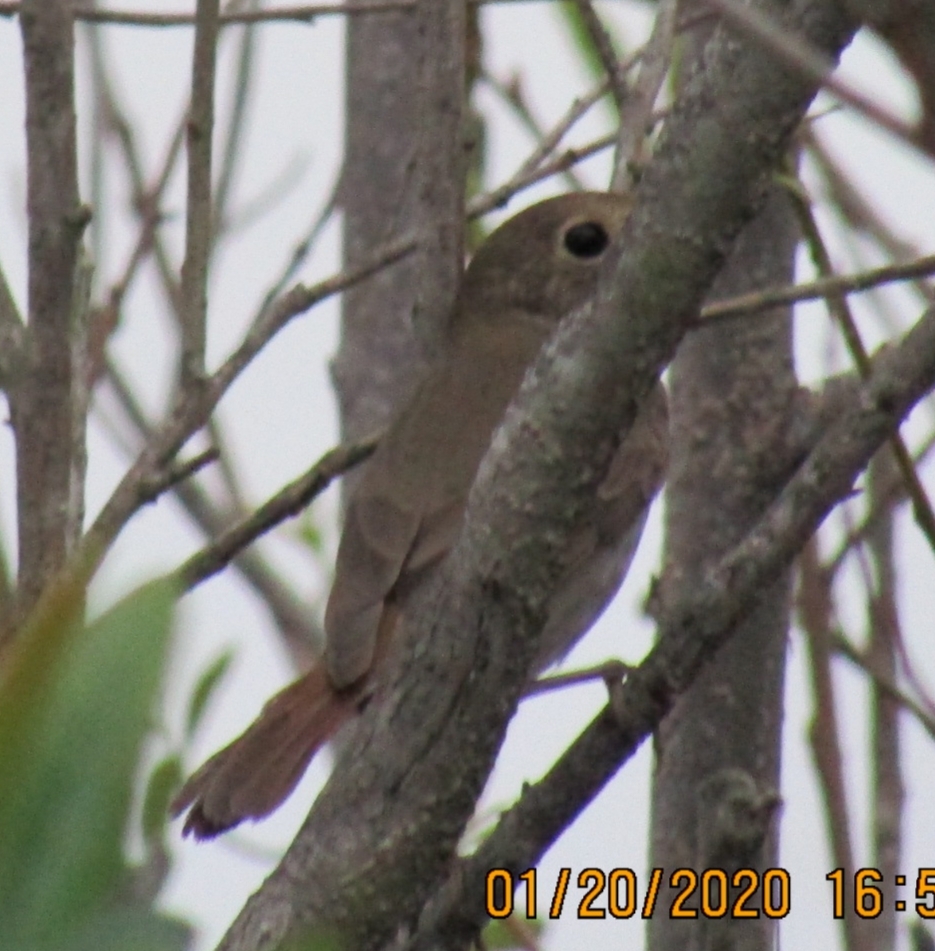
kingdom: Animalia
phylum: Chordata
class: Aves
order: Passeriformes
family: Turdidae
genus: Catharus
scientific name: Catharus guttatus
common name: Hermit thrush
